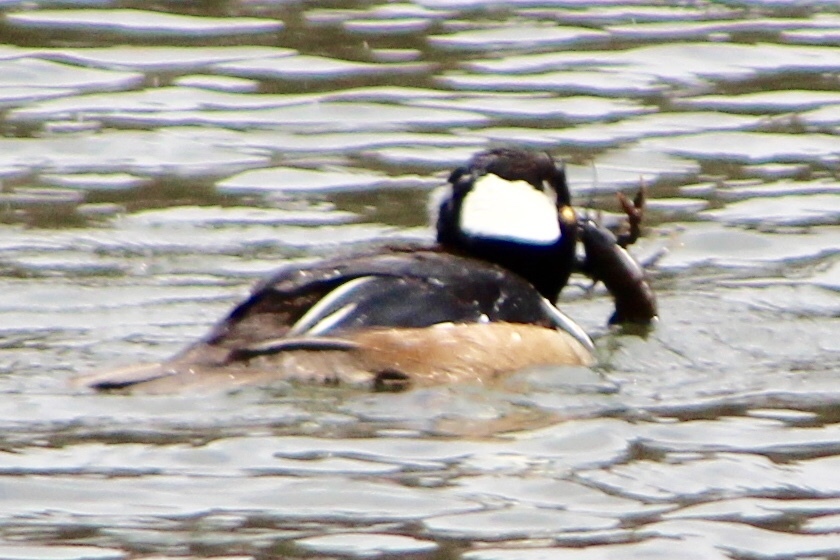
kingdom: Animalia
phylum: Chordata
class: Aves
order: Anseriformes
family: Anatidae
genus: Lophodytes
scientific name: Lophodytes cucullatus
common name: Hooded merganser
